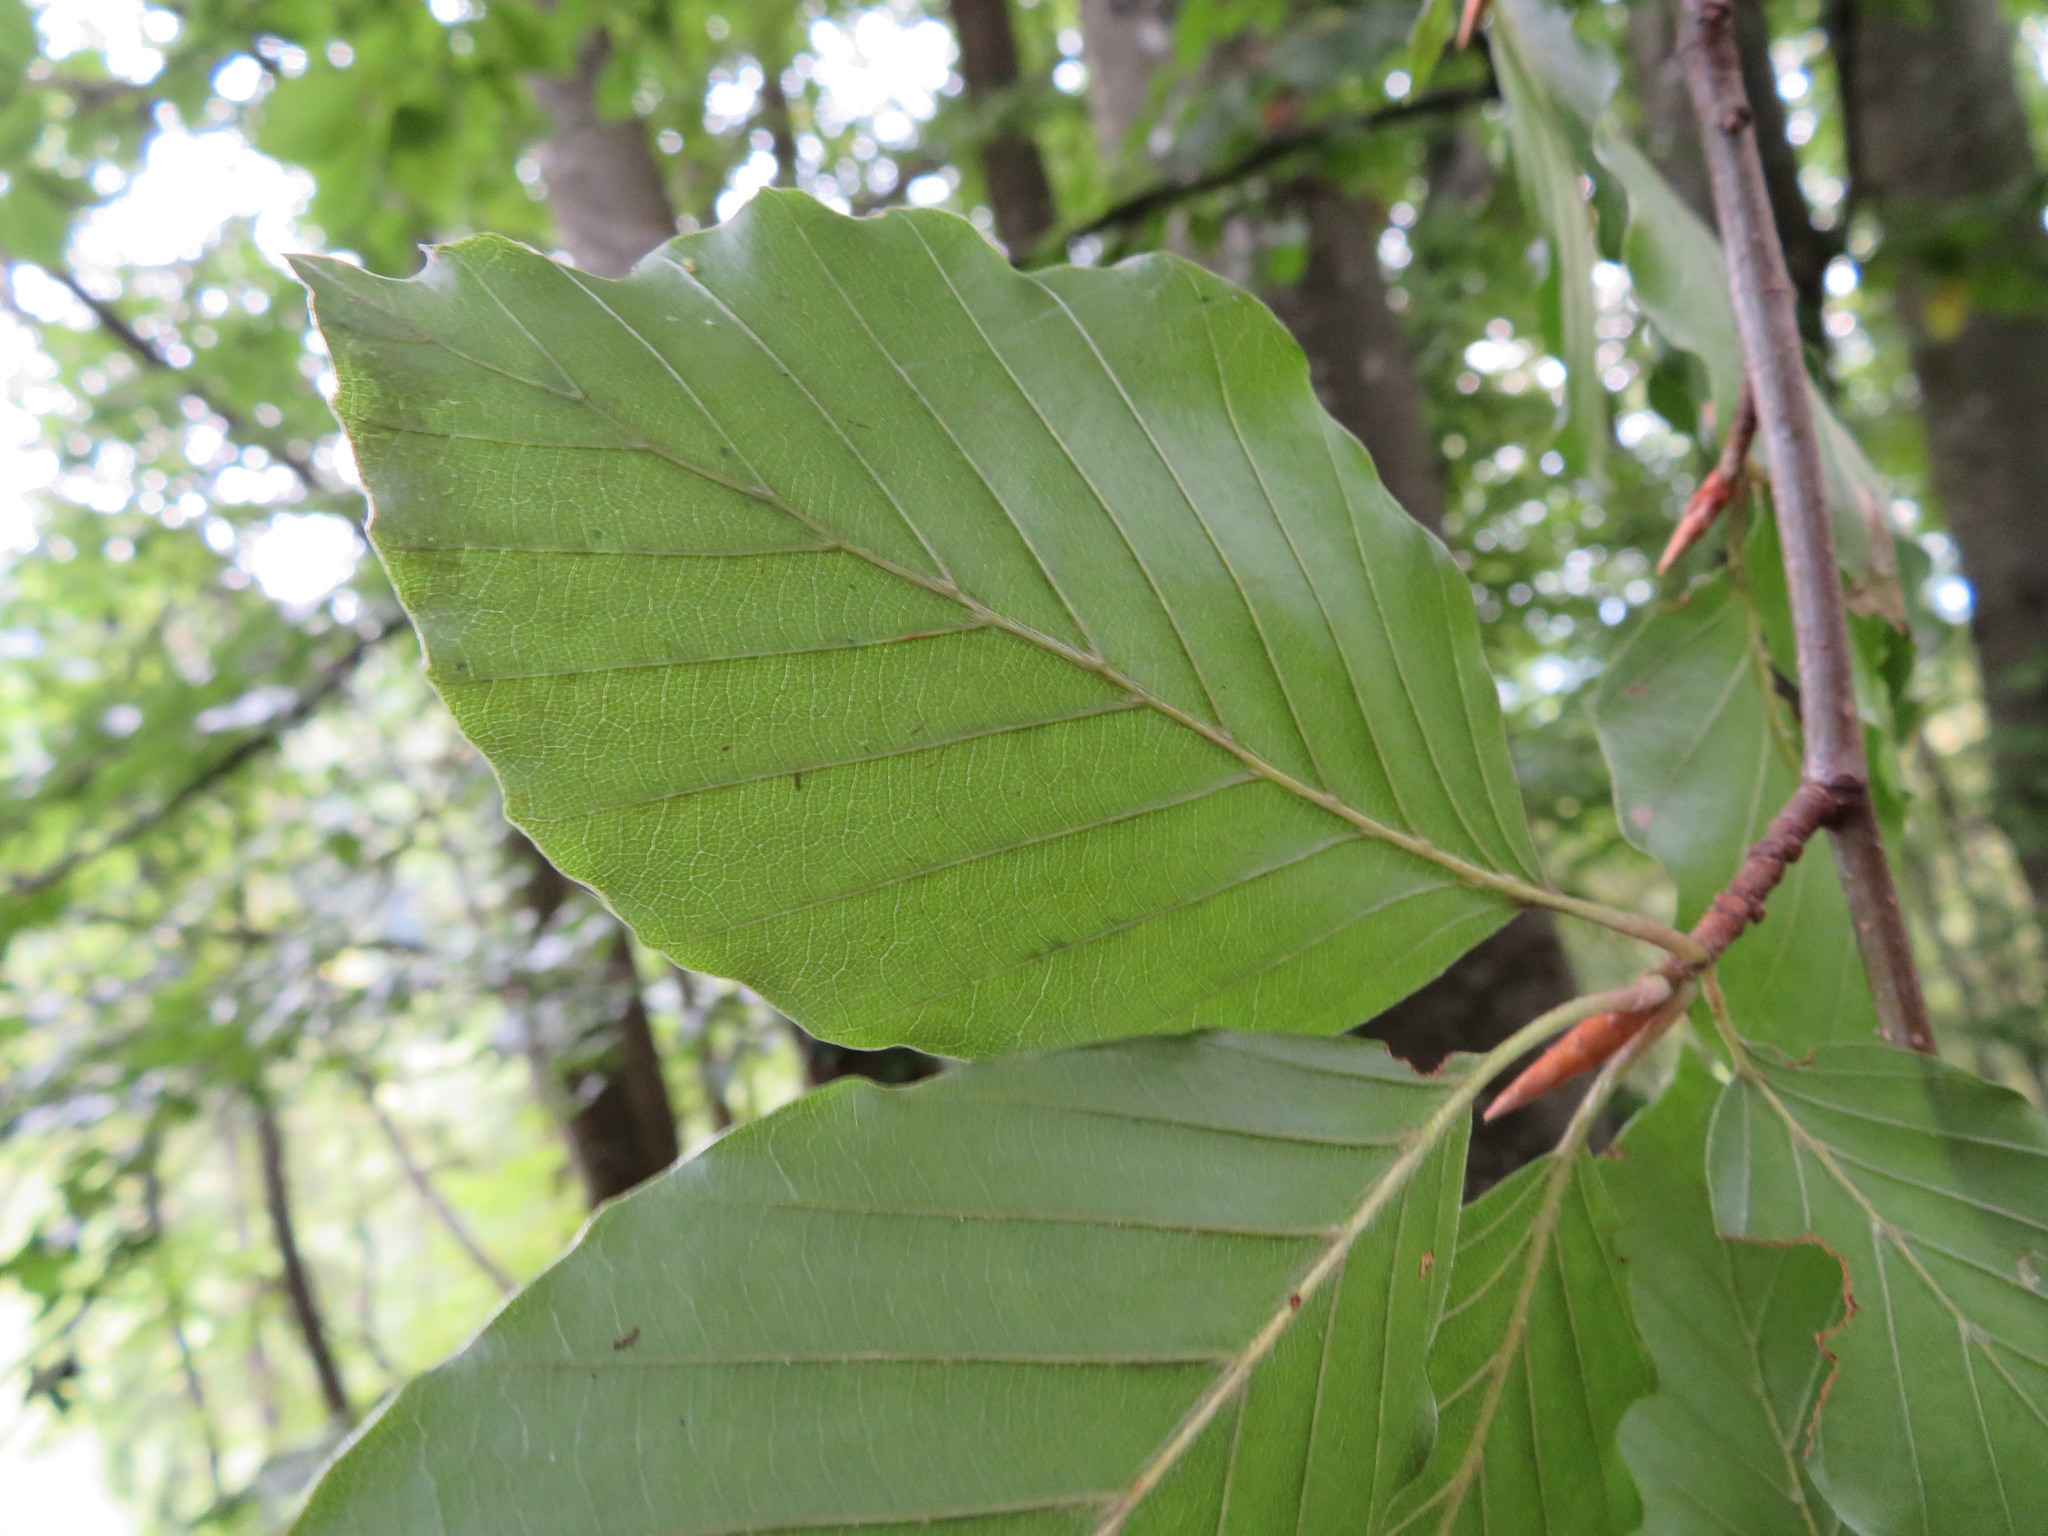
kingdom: Plantae
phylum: Tracheophyta
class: Magnoliopsida
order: Fagales
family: Fagaceae
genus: Fagus
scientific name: Fagus sylvatica
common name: Beech
